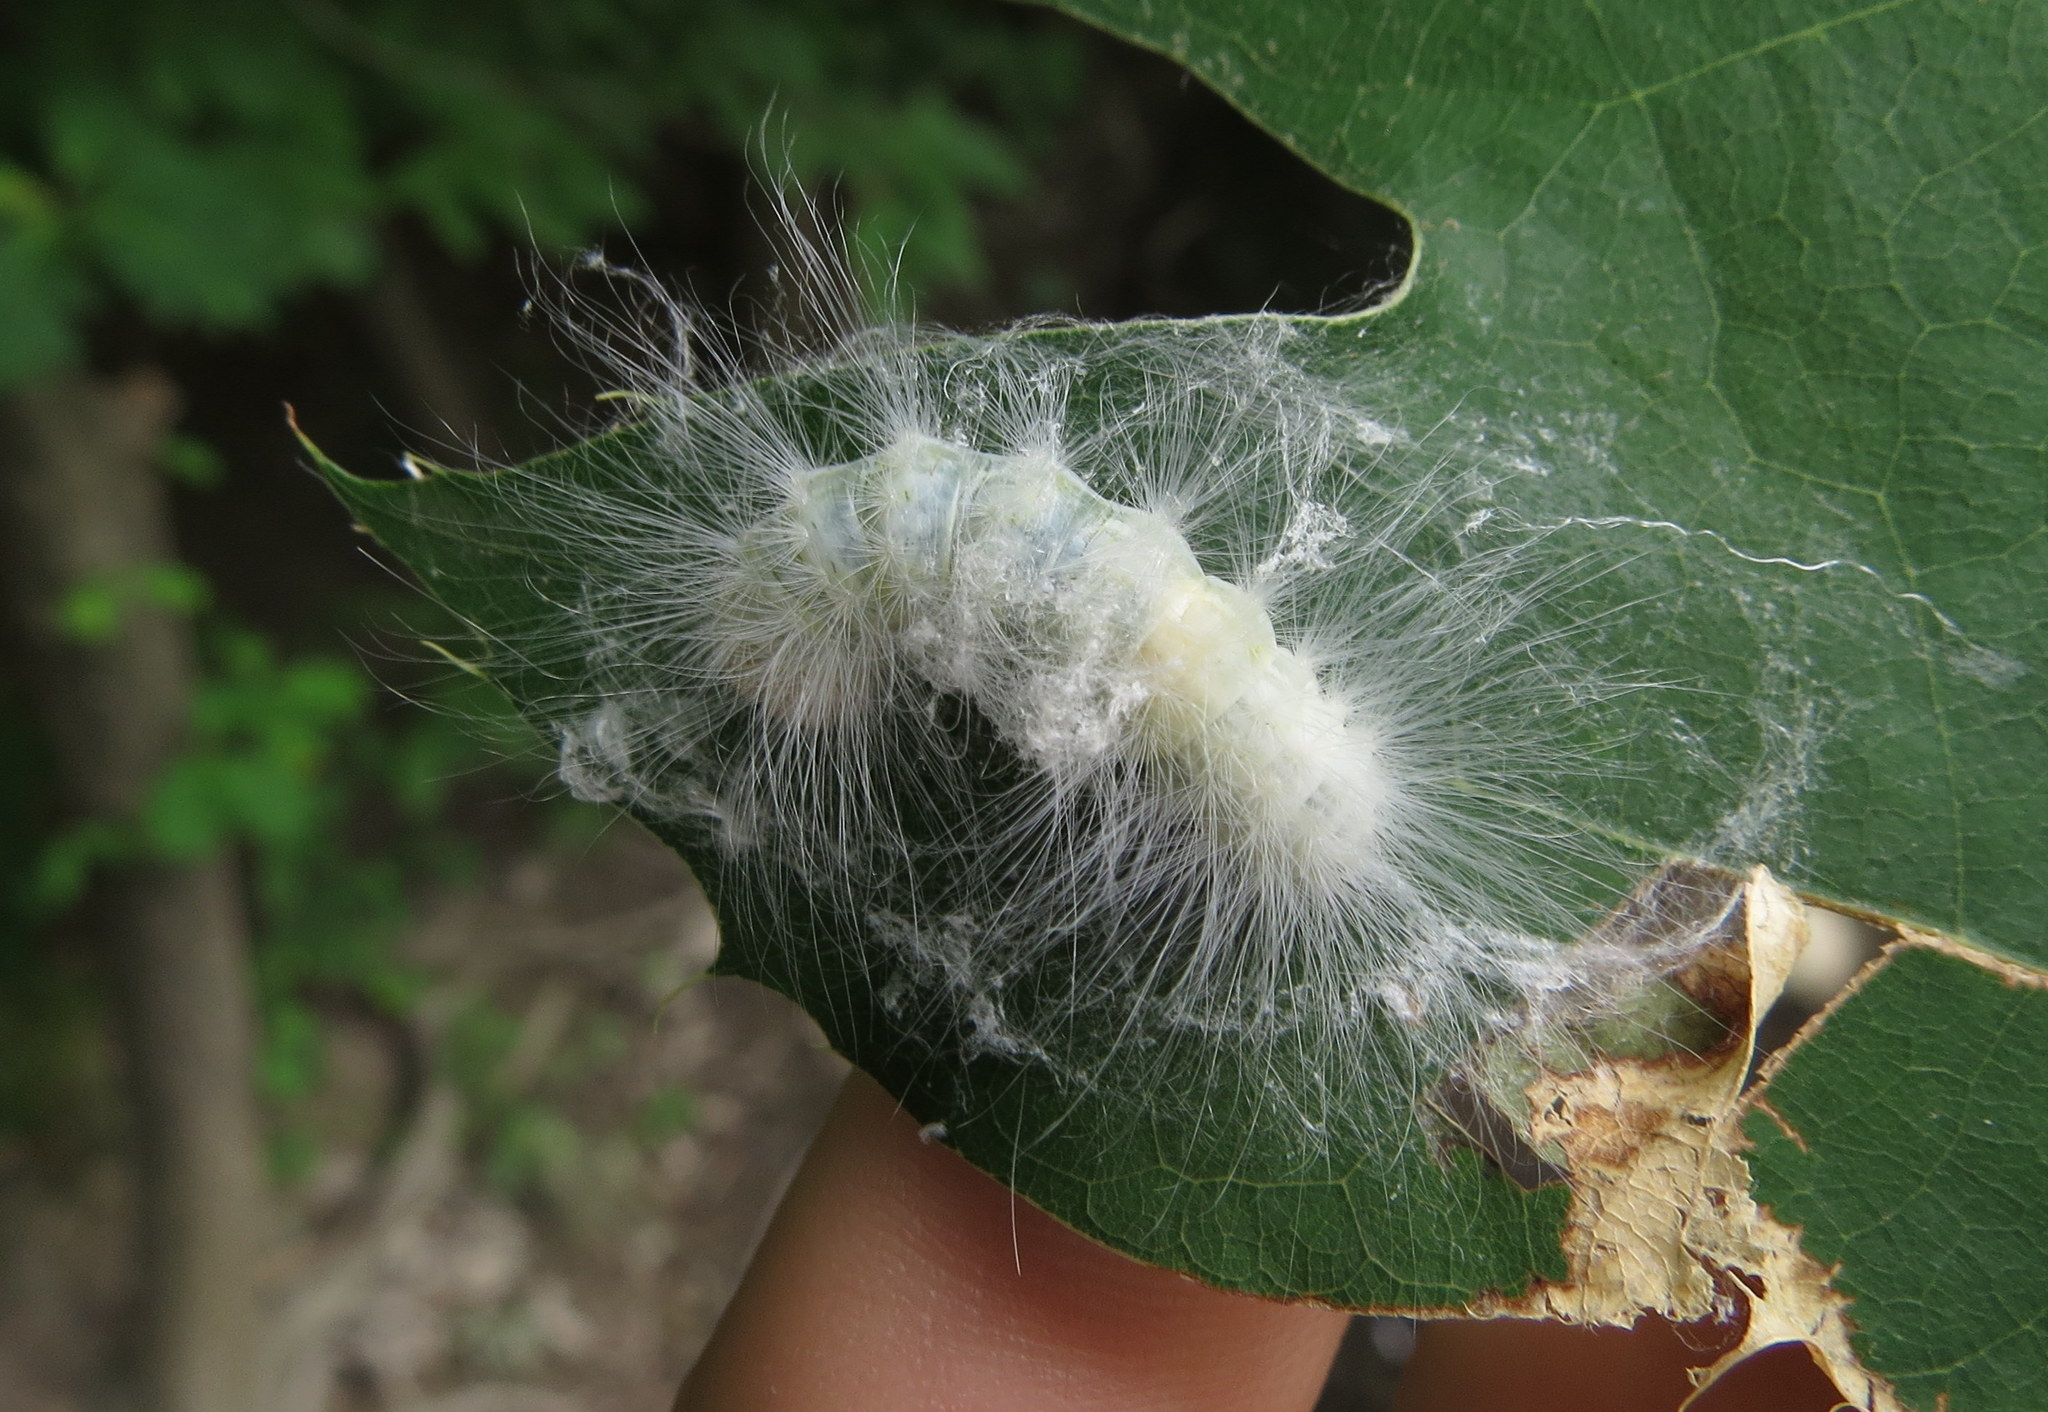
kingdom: Animalia
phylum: Arthropoda
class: Insecta
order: Lepidoptera
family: Noctuidae
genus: Charadra
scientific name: Charadra deridens
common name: Marbled tuffet
